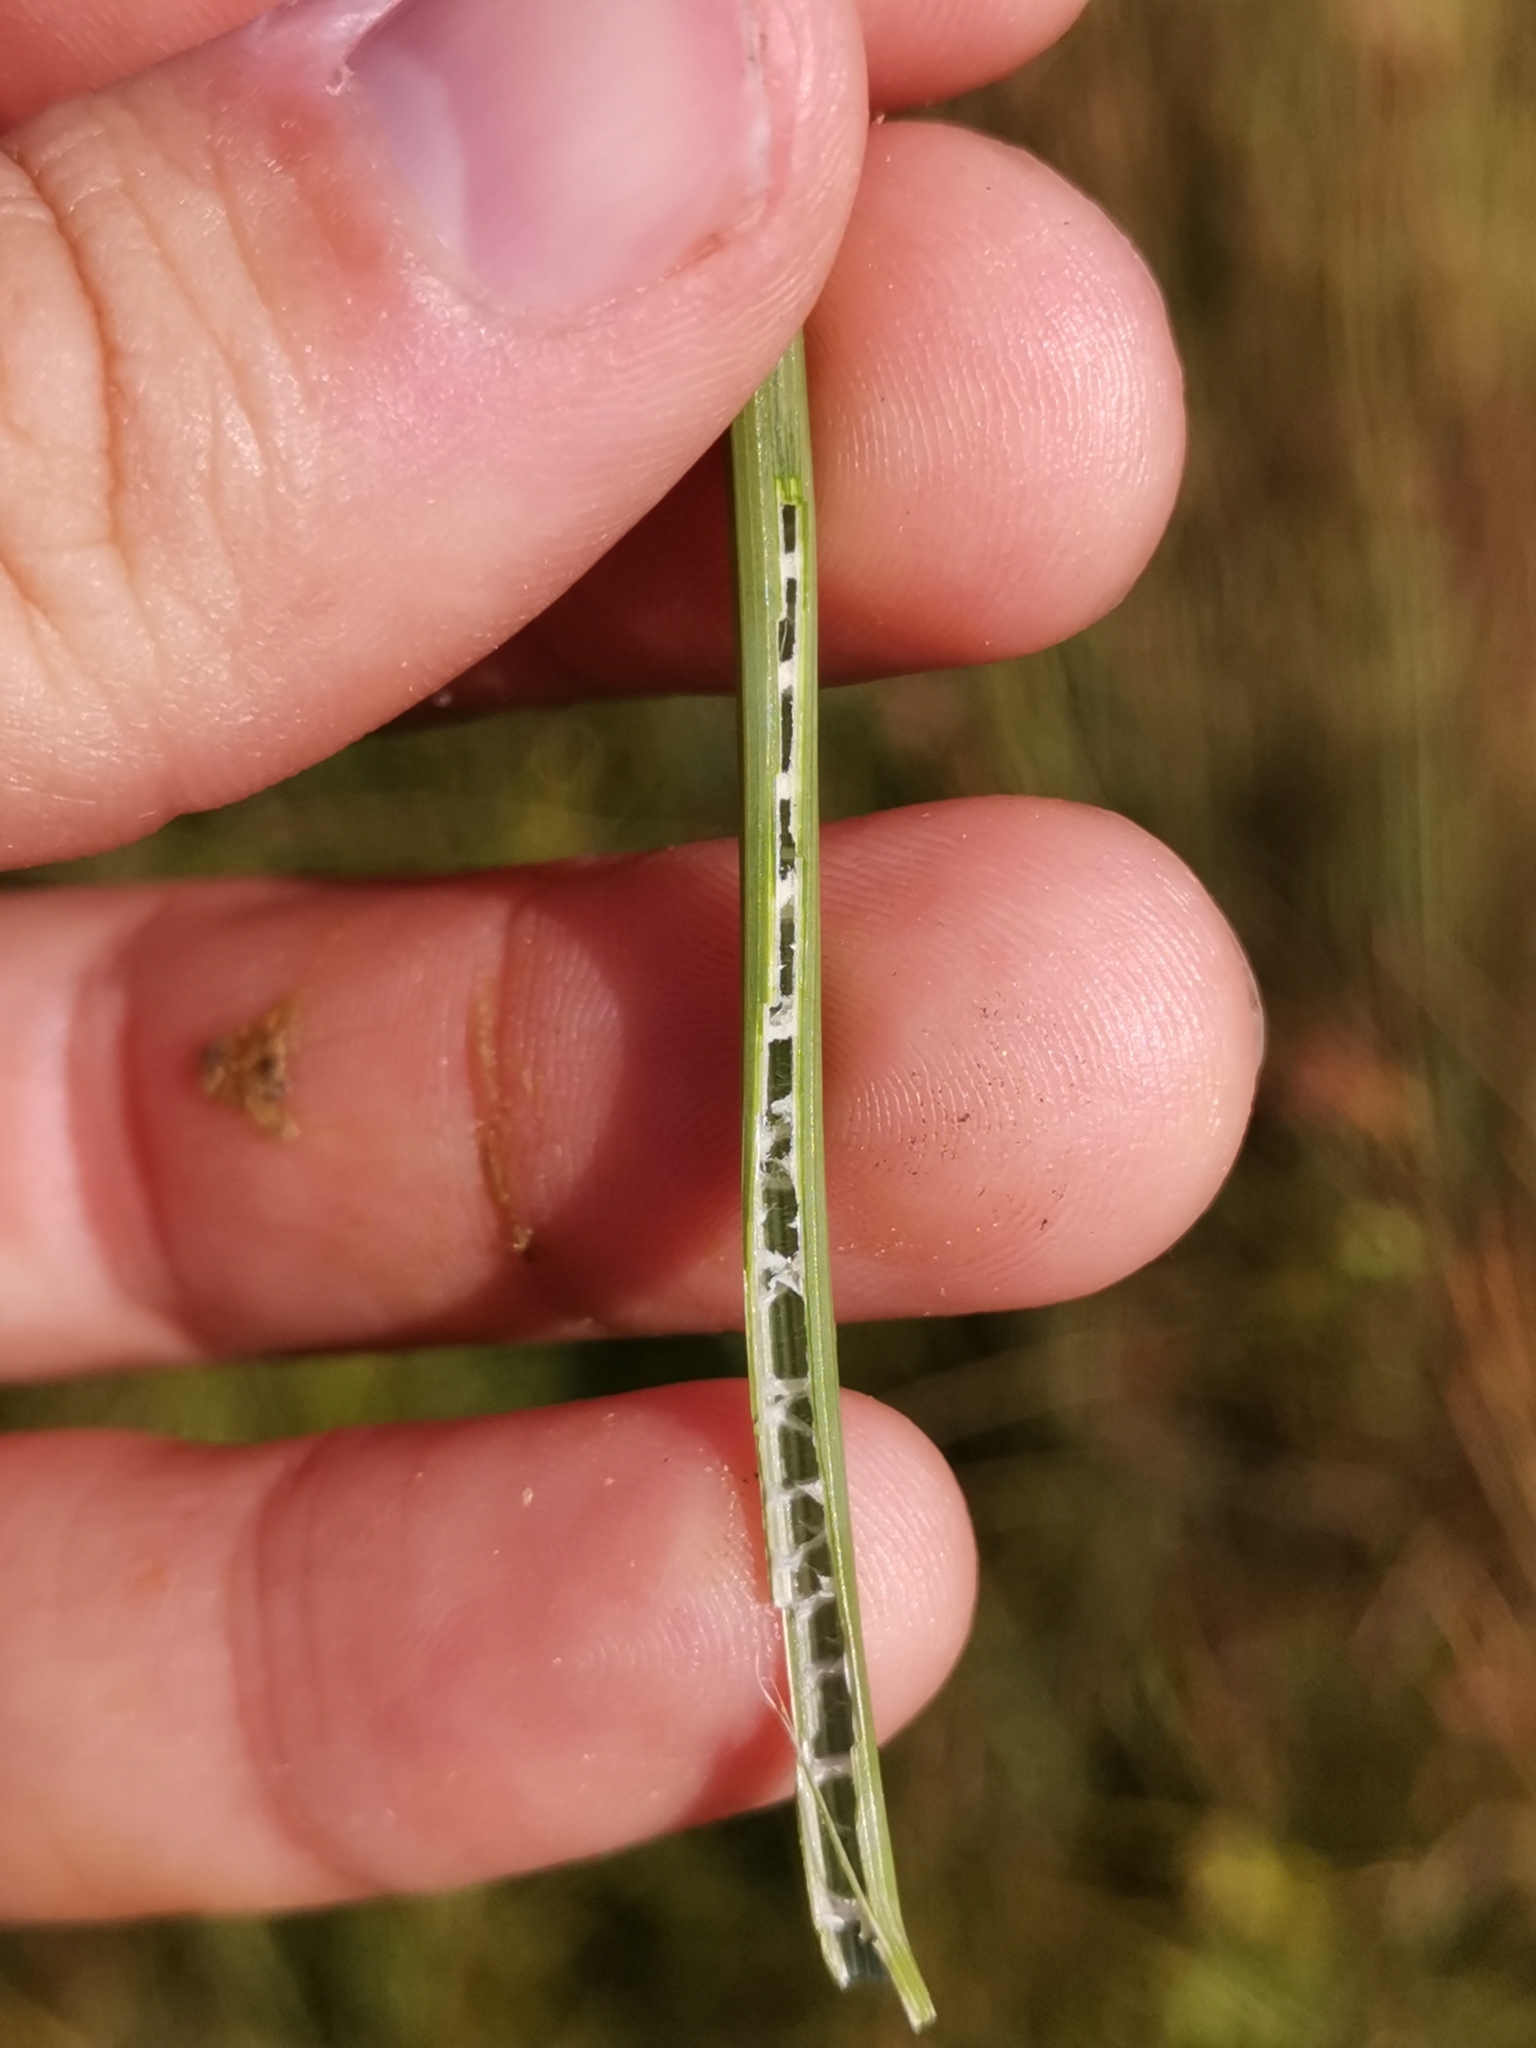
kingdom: Plantae
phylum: Tracheophyta
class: Liliopsida
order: Poales
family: Juncaceae
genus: Juncus
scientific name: Juncus inflexus
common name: Hard rush
